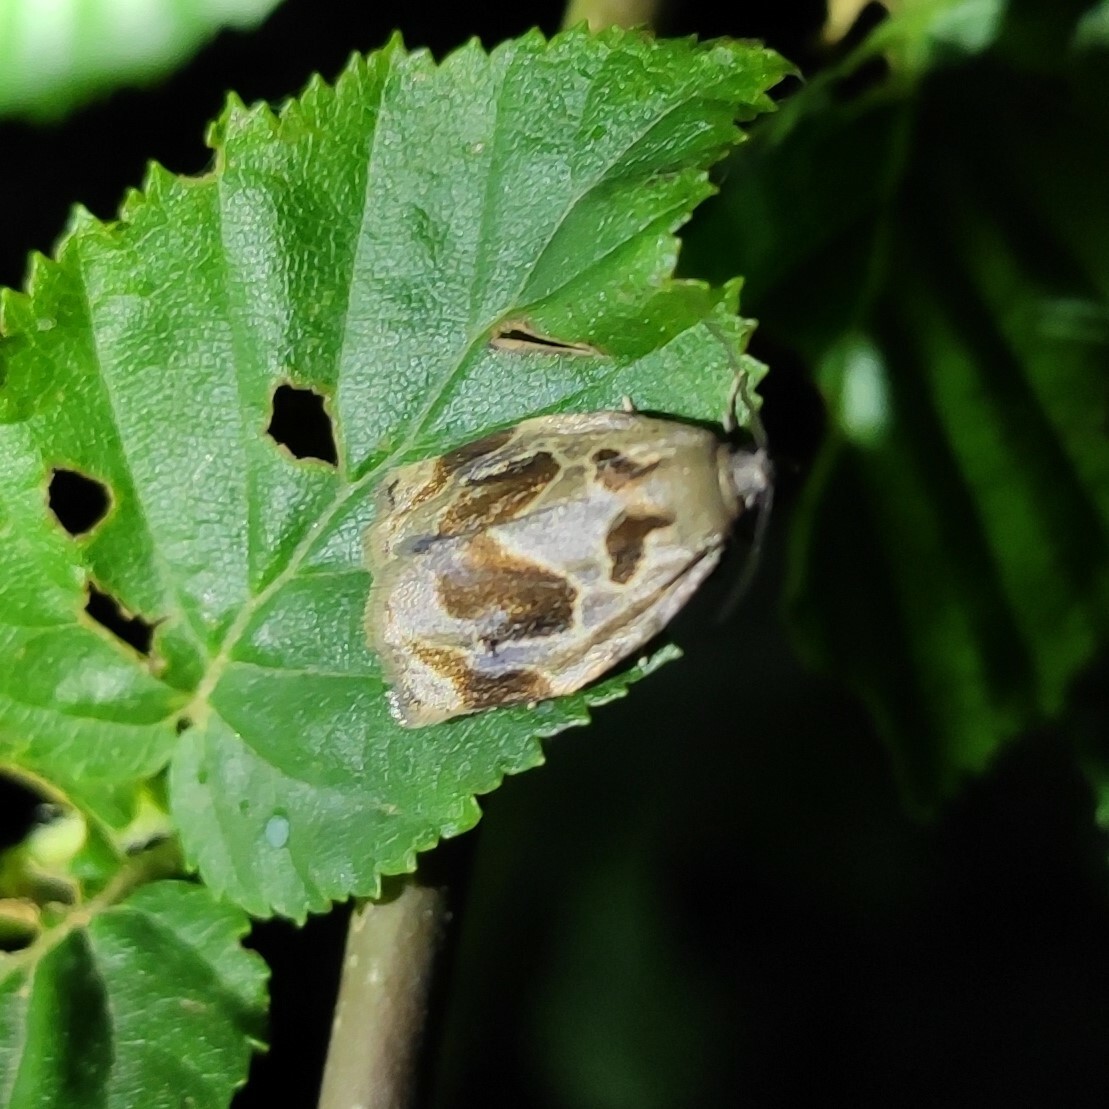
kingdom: Animalia
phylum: Arthropoda
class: Insecta
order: Lepidoptera
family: Tortricidae
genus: Archips
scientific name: Archips crataegana
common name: Brown oak tortrix
